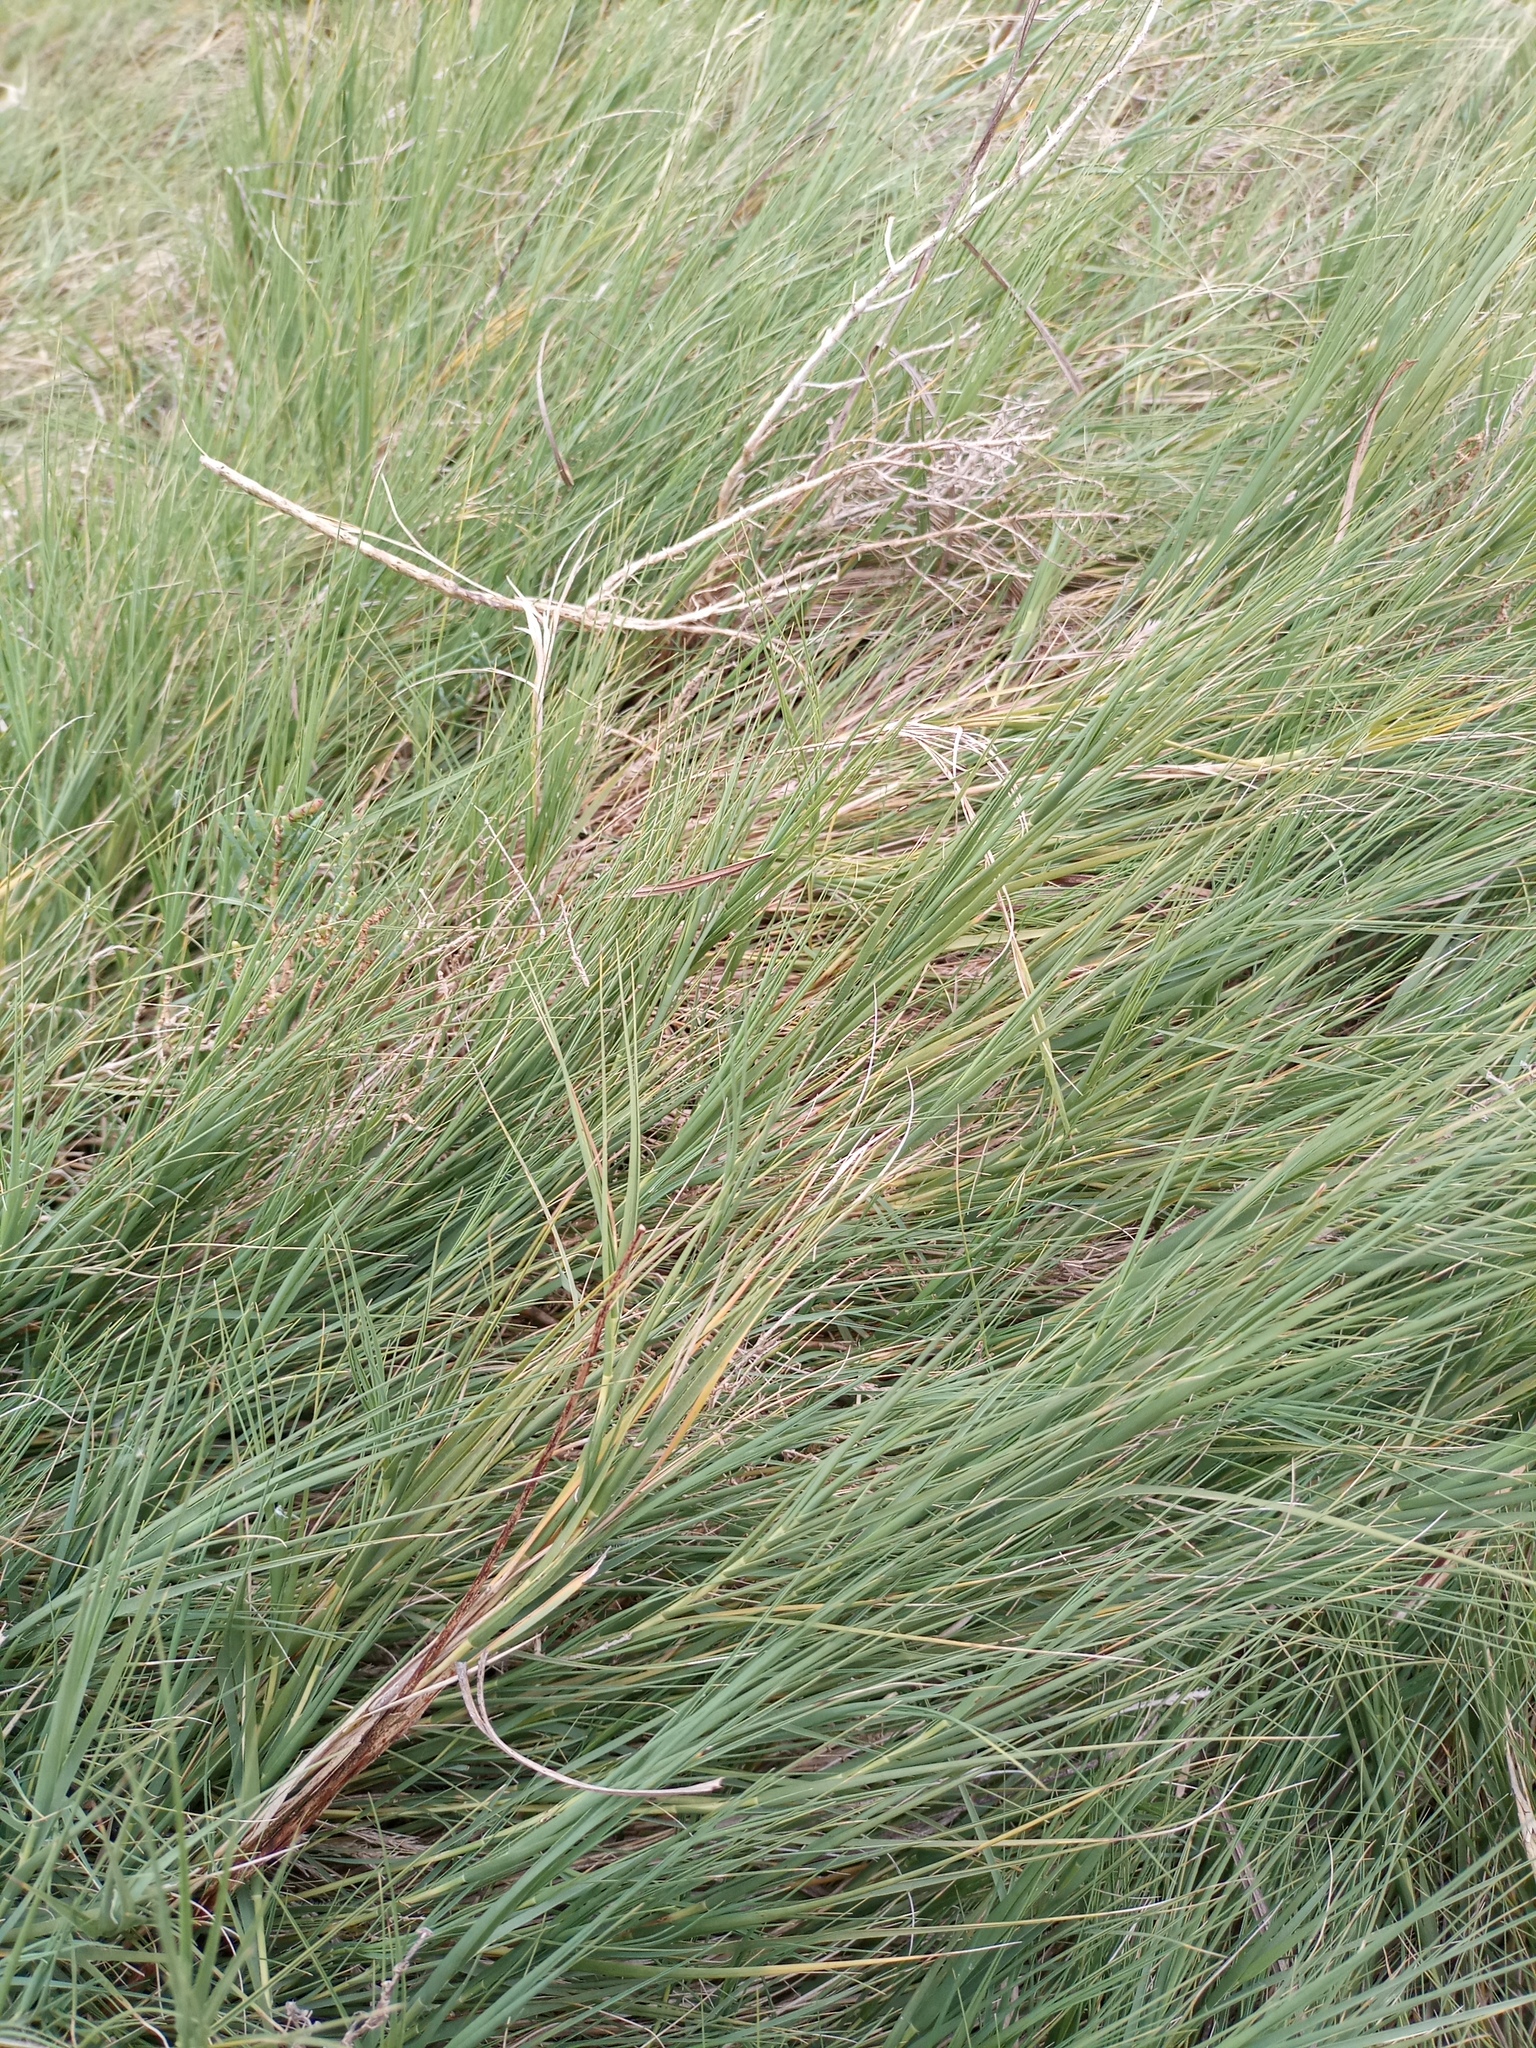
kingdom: Plantae
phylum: Tracheophyta
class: Liliopsida
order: Poales
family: Poaceae
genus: Distichlis
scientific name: Distichlis spicata
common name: Saltgrass
